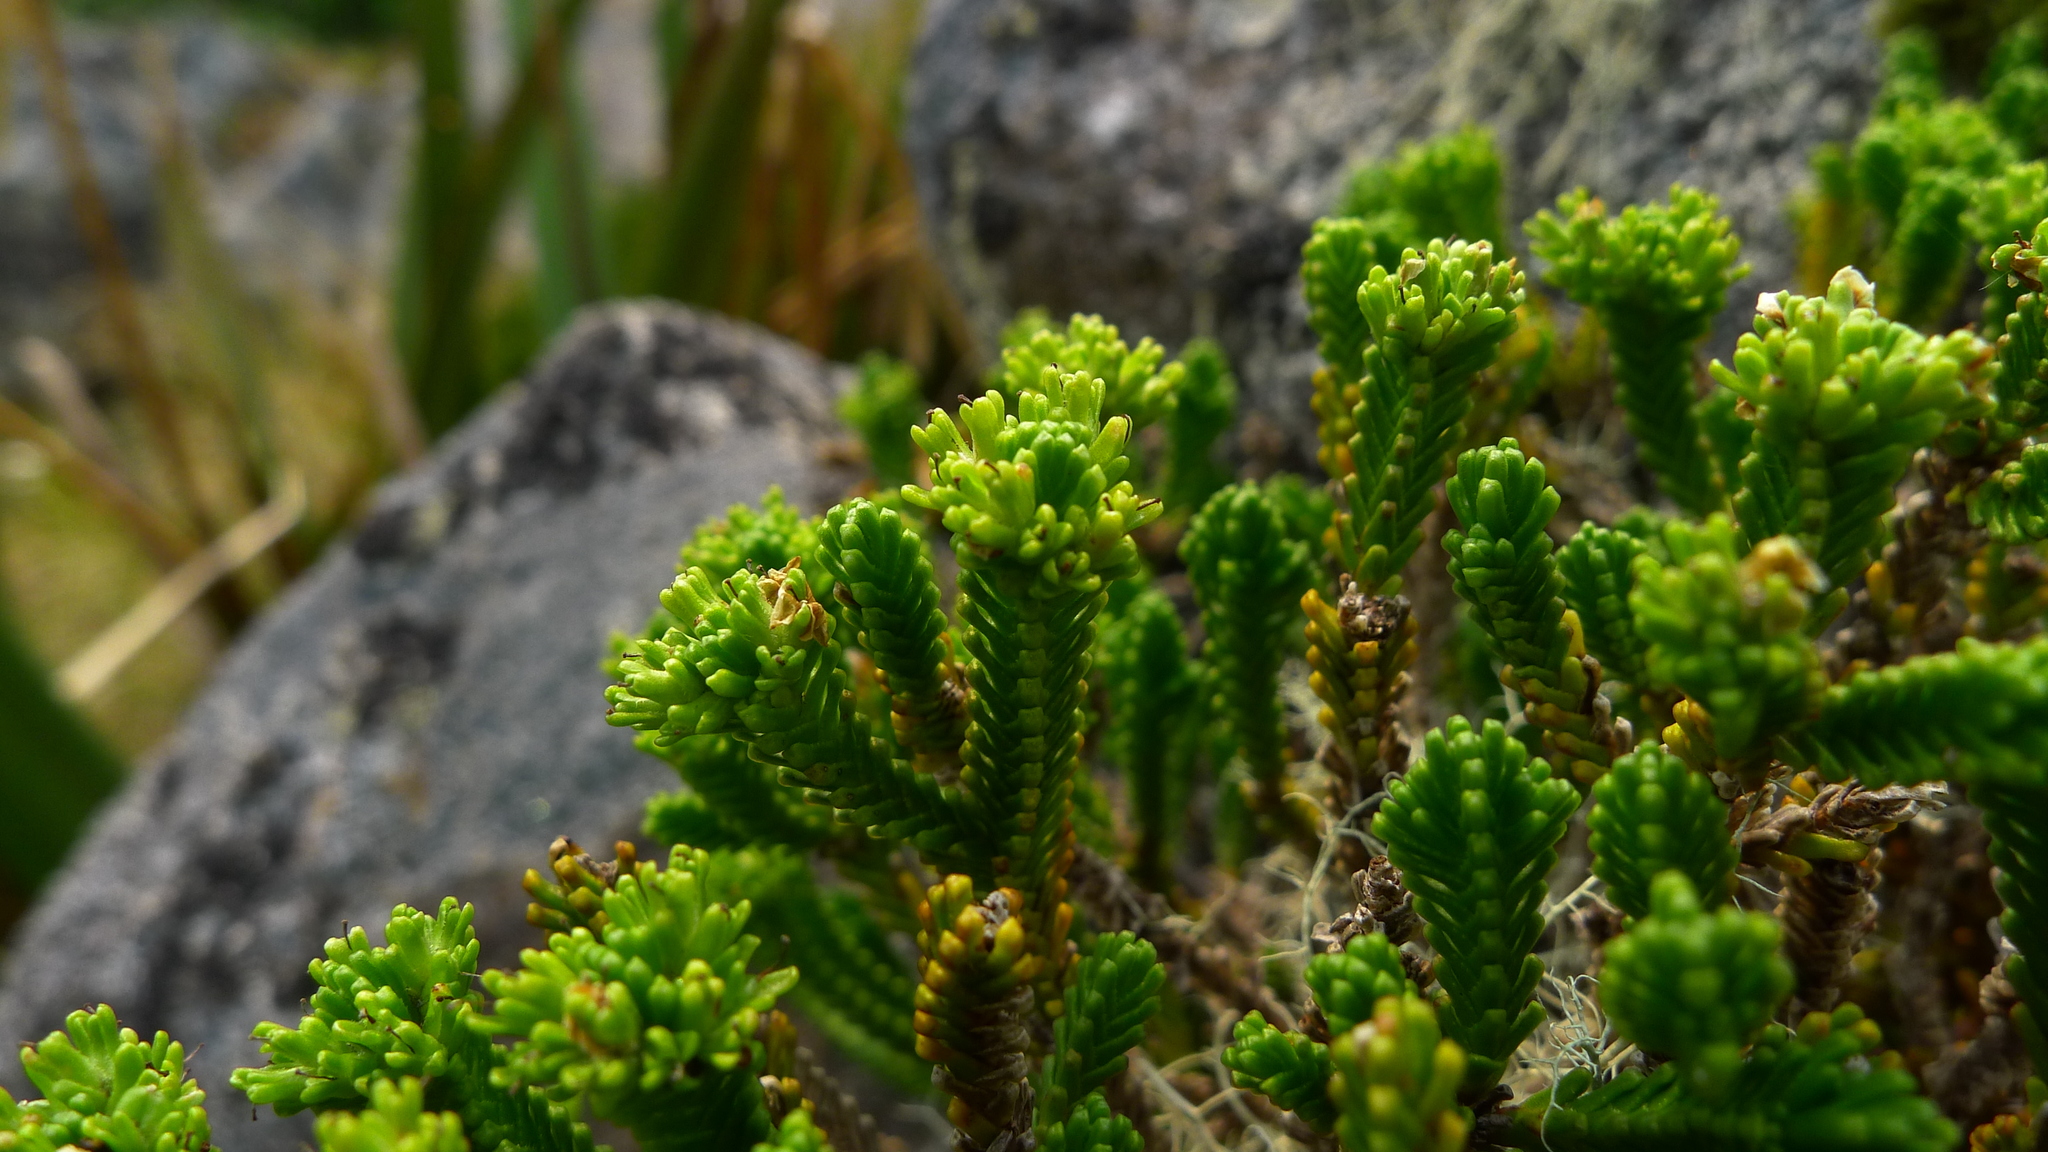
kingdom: Plantae
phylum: Tracheophyta
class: Magnoliopsida
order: Lamiales
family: Plantaginaceae
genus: Veronica
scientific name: Veronica hookeri
